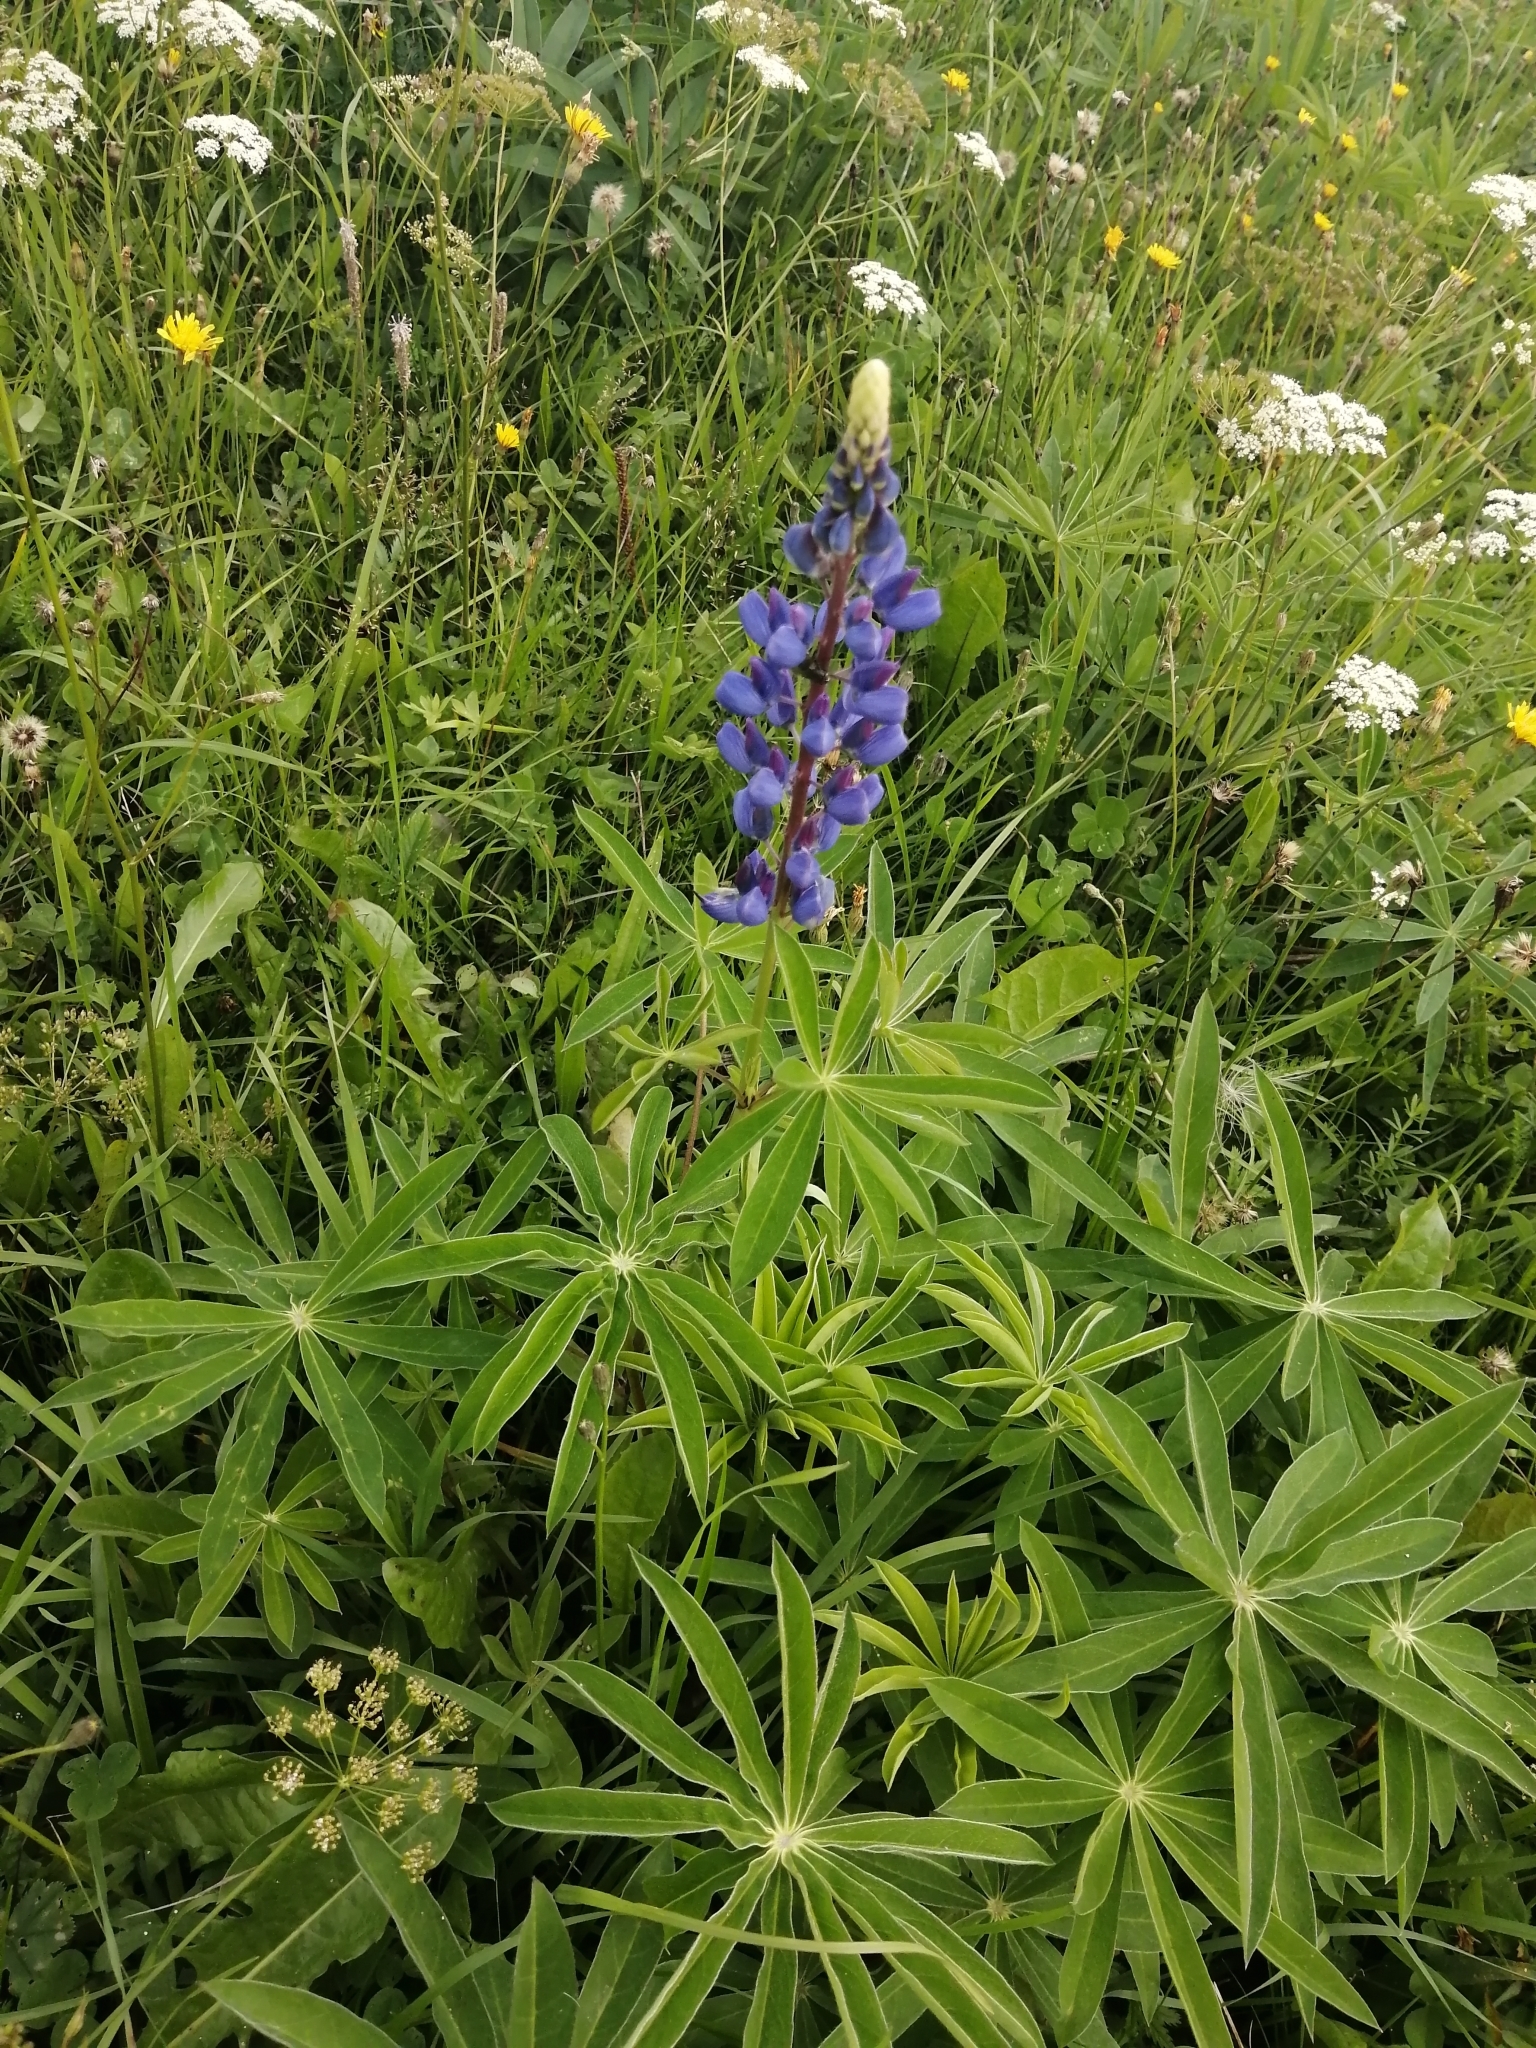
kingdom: Plantae
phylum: Tracheophyta
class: Magnoliopsida
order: Fabales
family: Fabaceae
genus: Lupinus
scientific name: Lupinus polyphyllus
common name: Garden lupin
